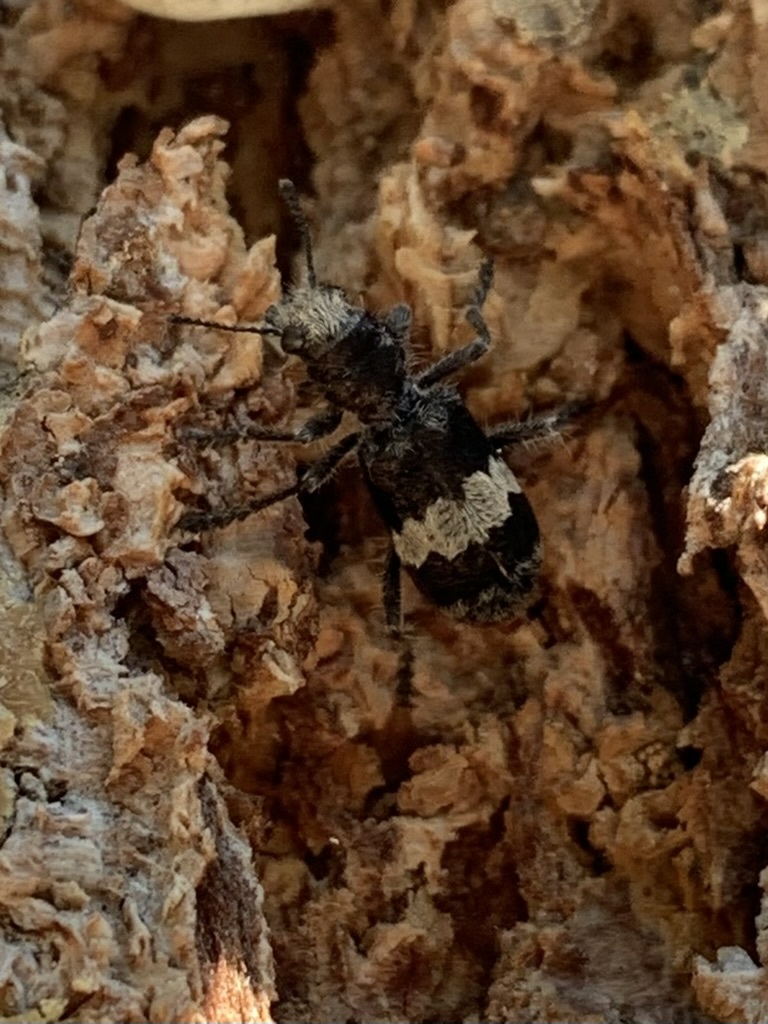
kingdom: Animalia
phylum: Arthropoda
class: Insecta
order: Coleoptera
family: Cleridae
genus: Enoclerus
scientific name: Enoclerus sphegeus
